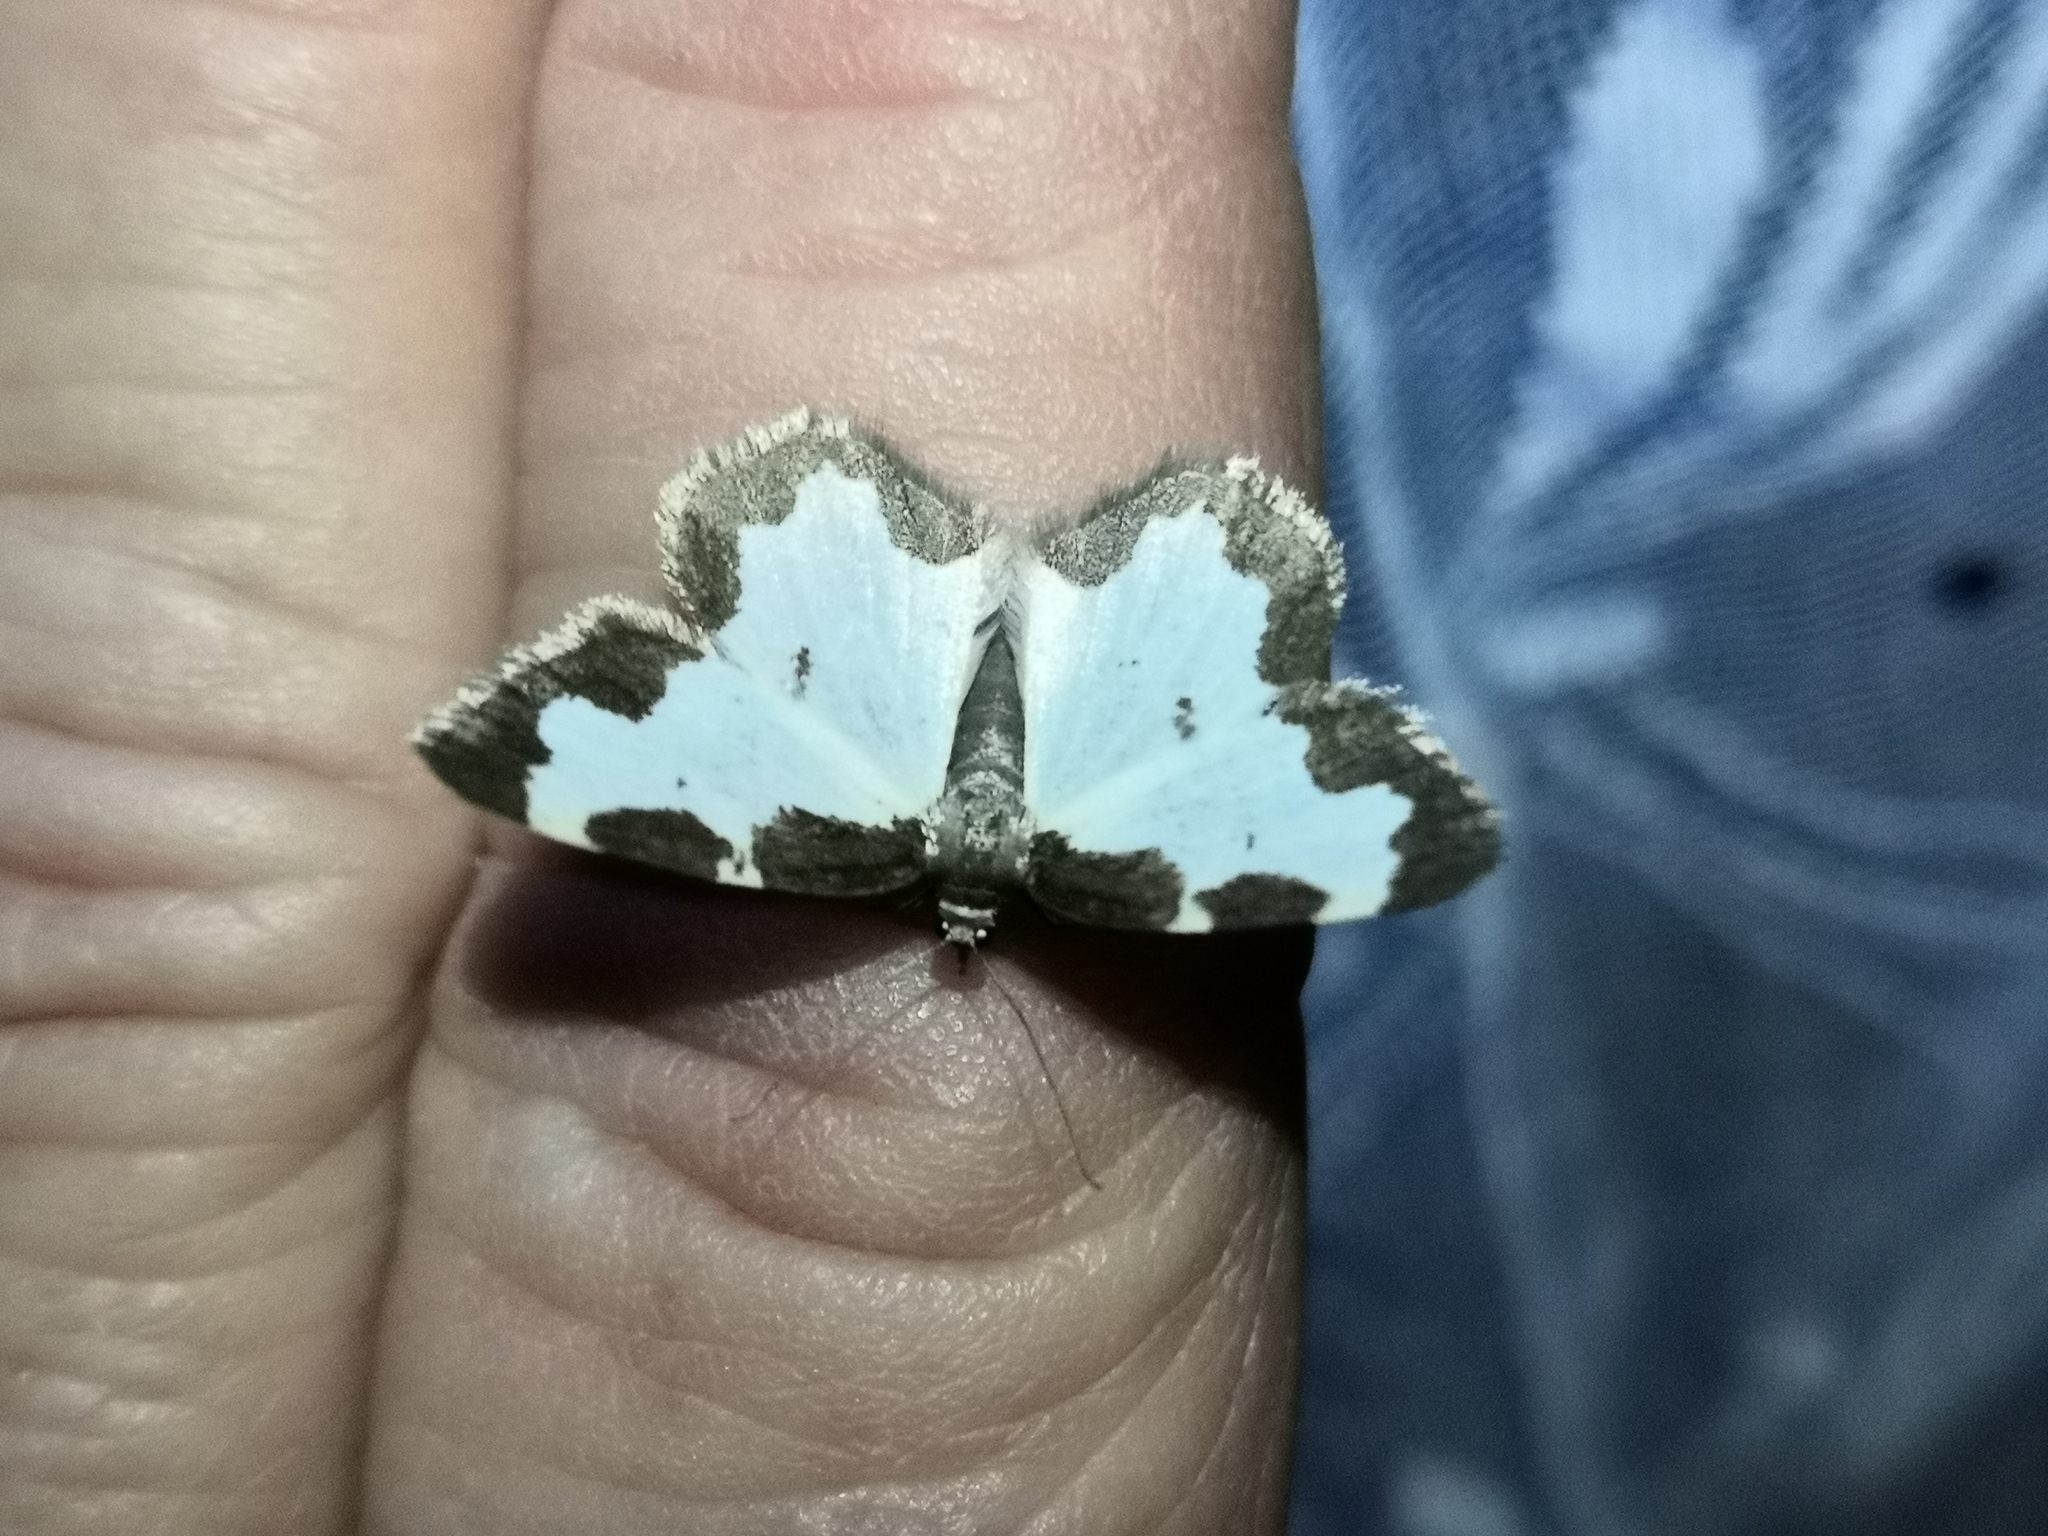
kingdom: Animalia
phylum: Arthropoda
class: Insecta
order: Lepidoptera
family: Geometridae
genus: Lomaspilis
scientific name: Lomaspilis marginata
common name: Clouded border
